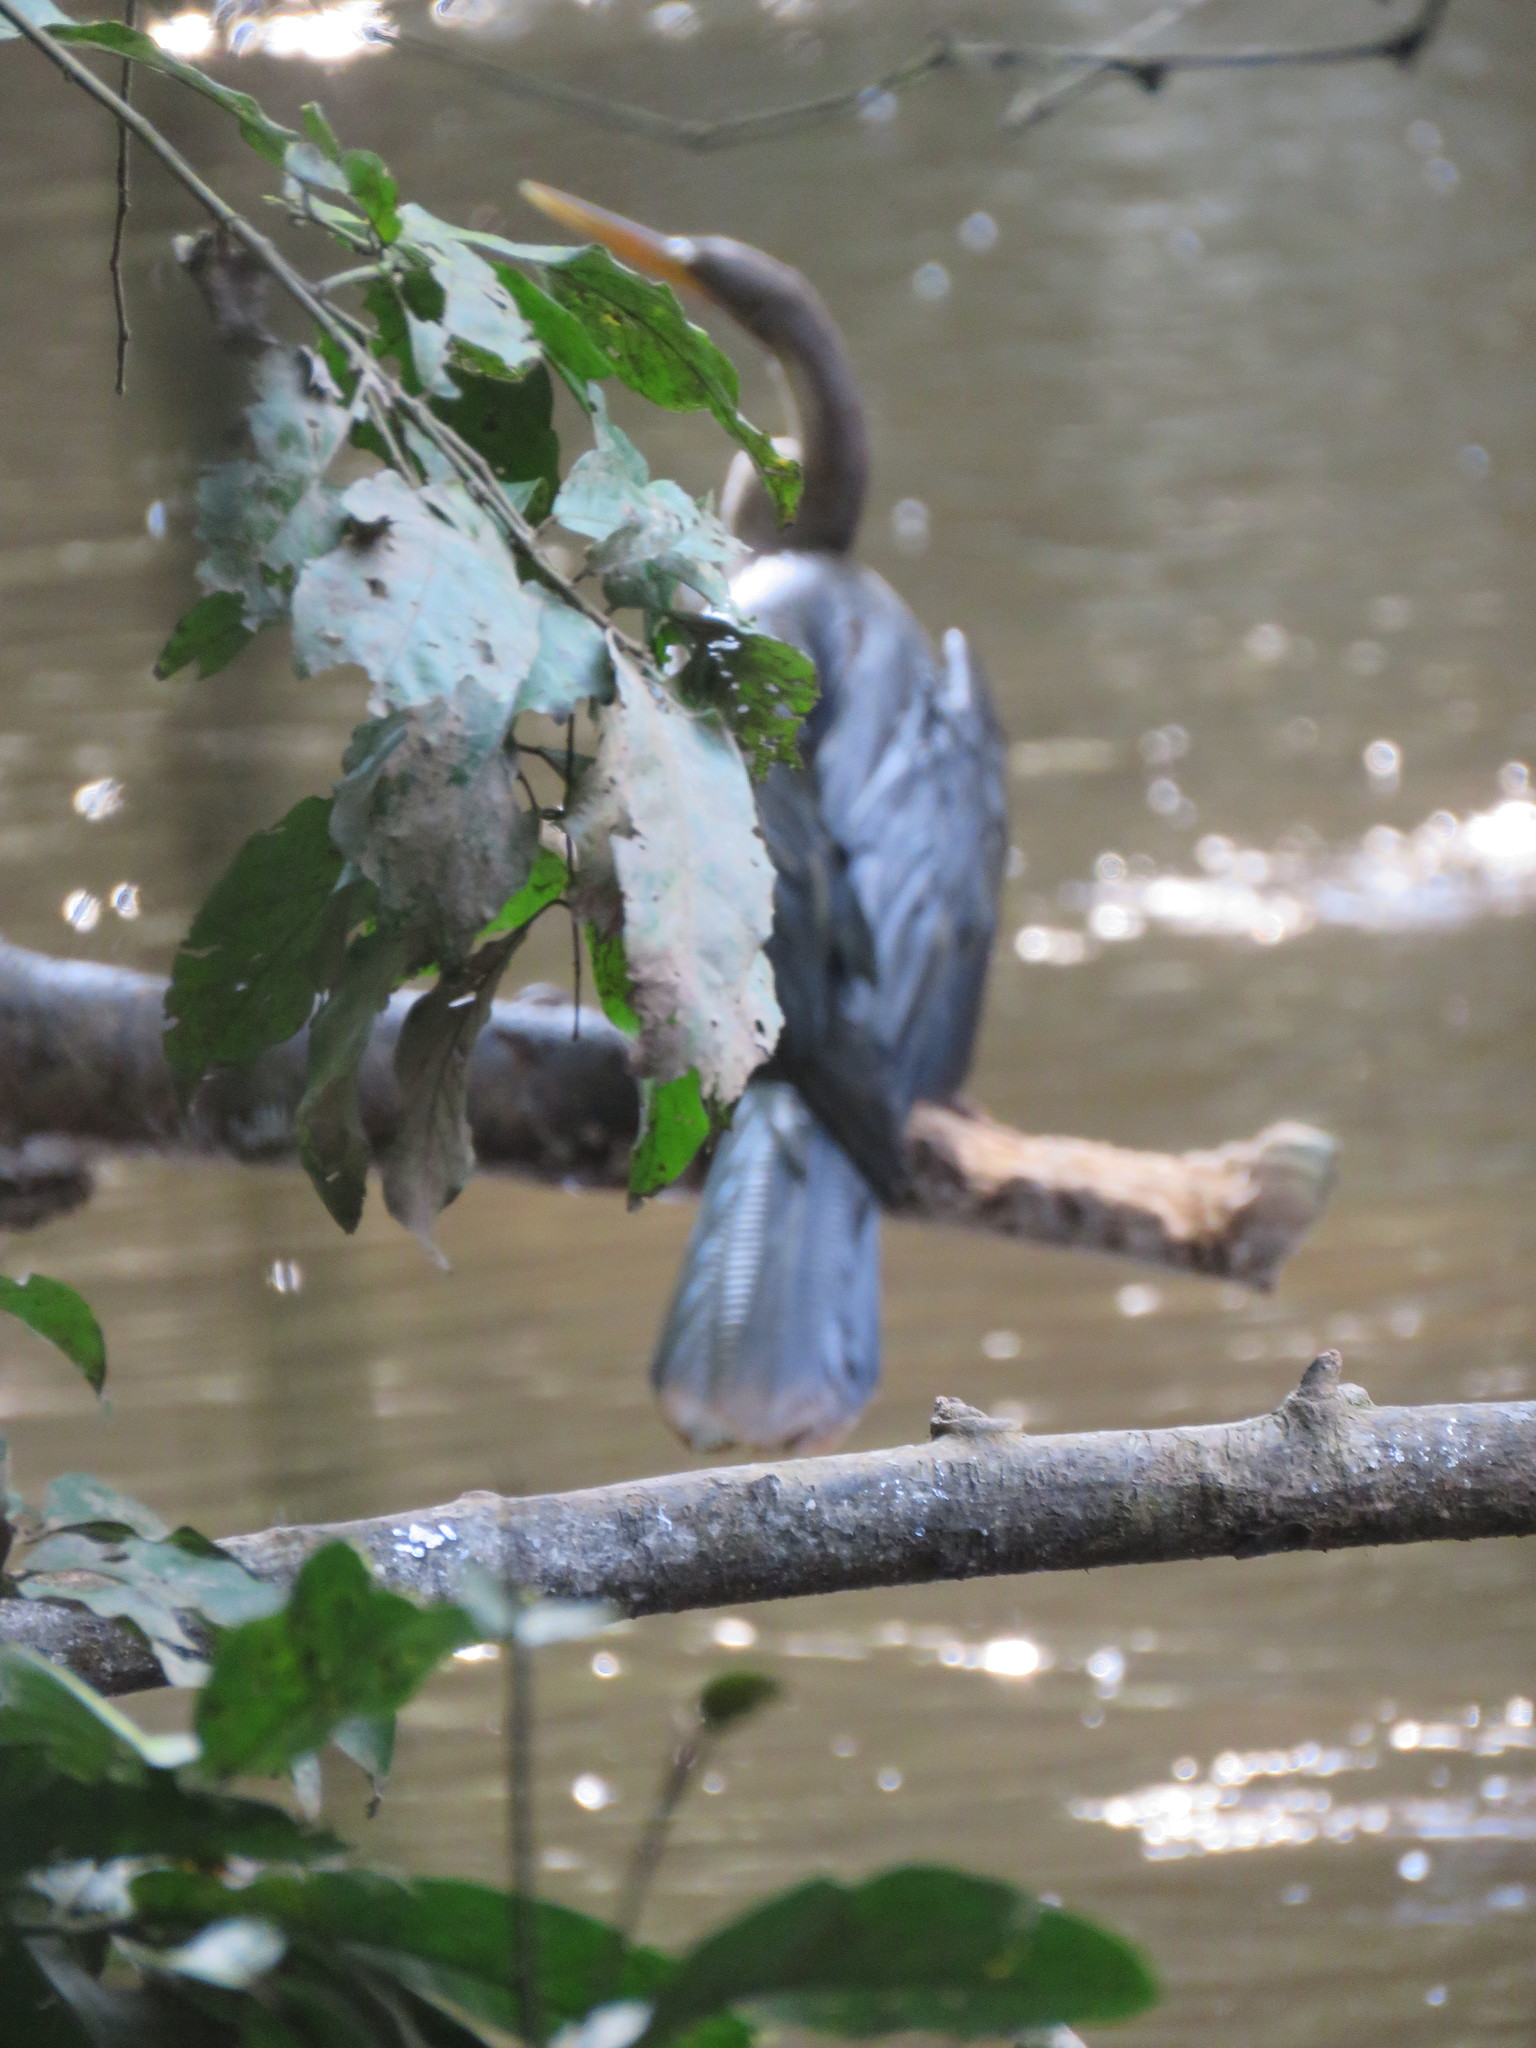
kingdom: Animalia
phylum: Chordata
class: Aves
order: Suliformes
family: Anhingidae
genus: Anhinga
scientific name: Anhinga anhinga
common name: Anhinga
